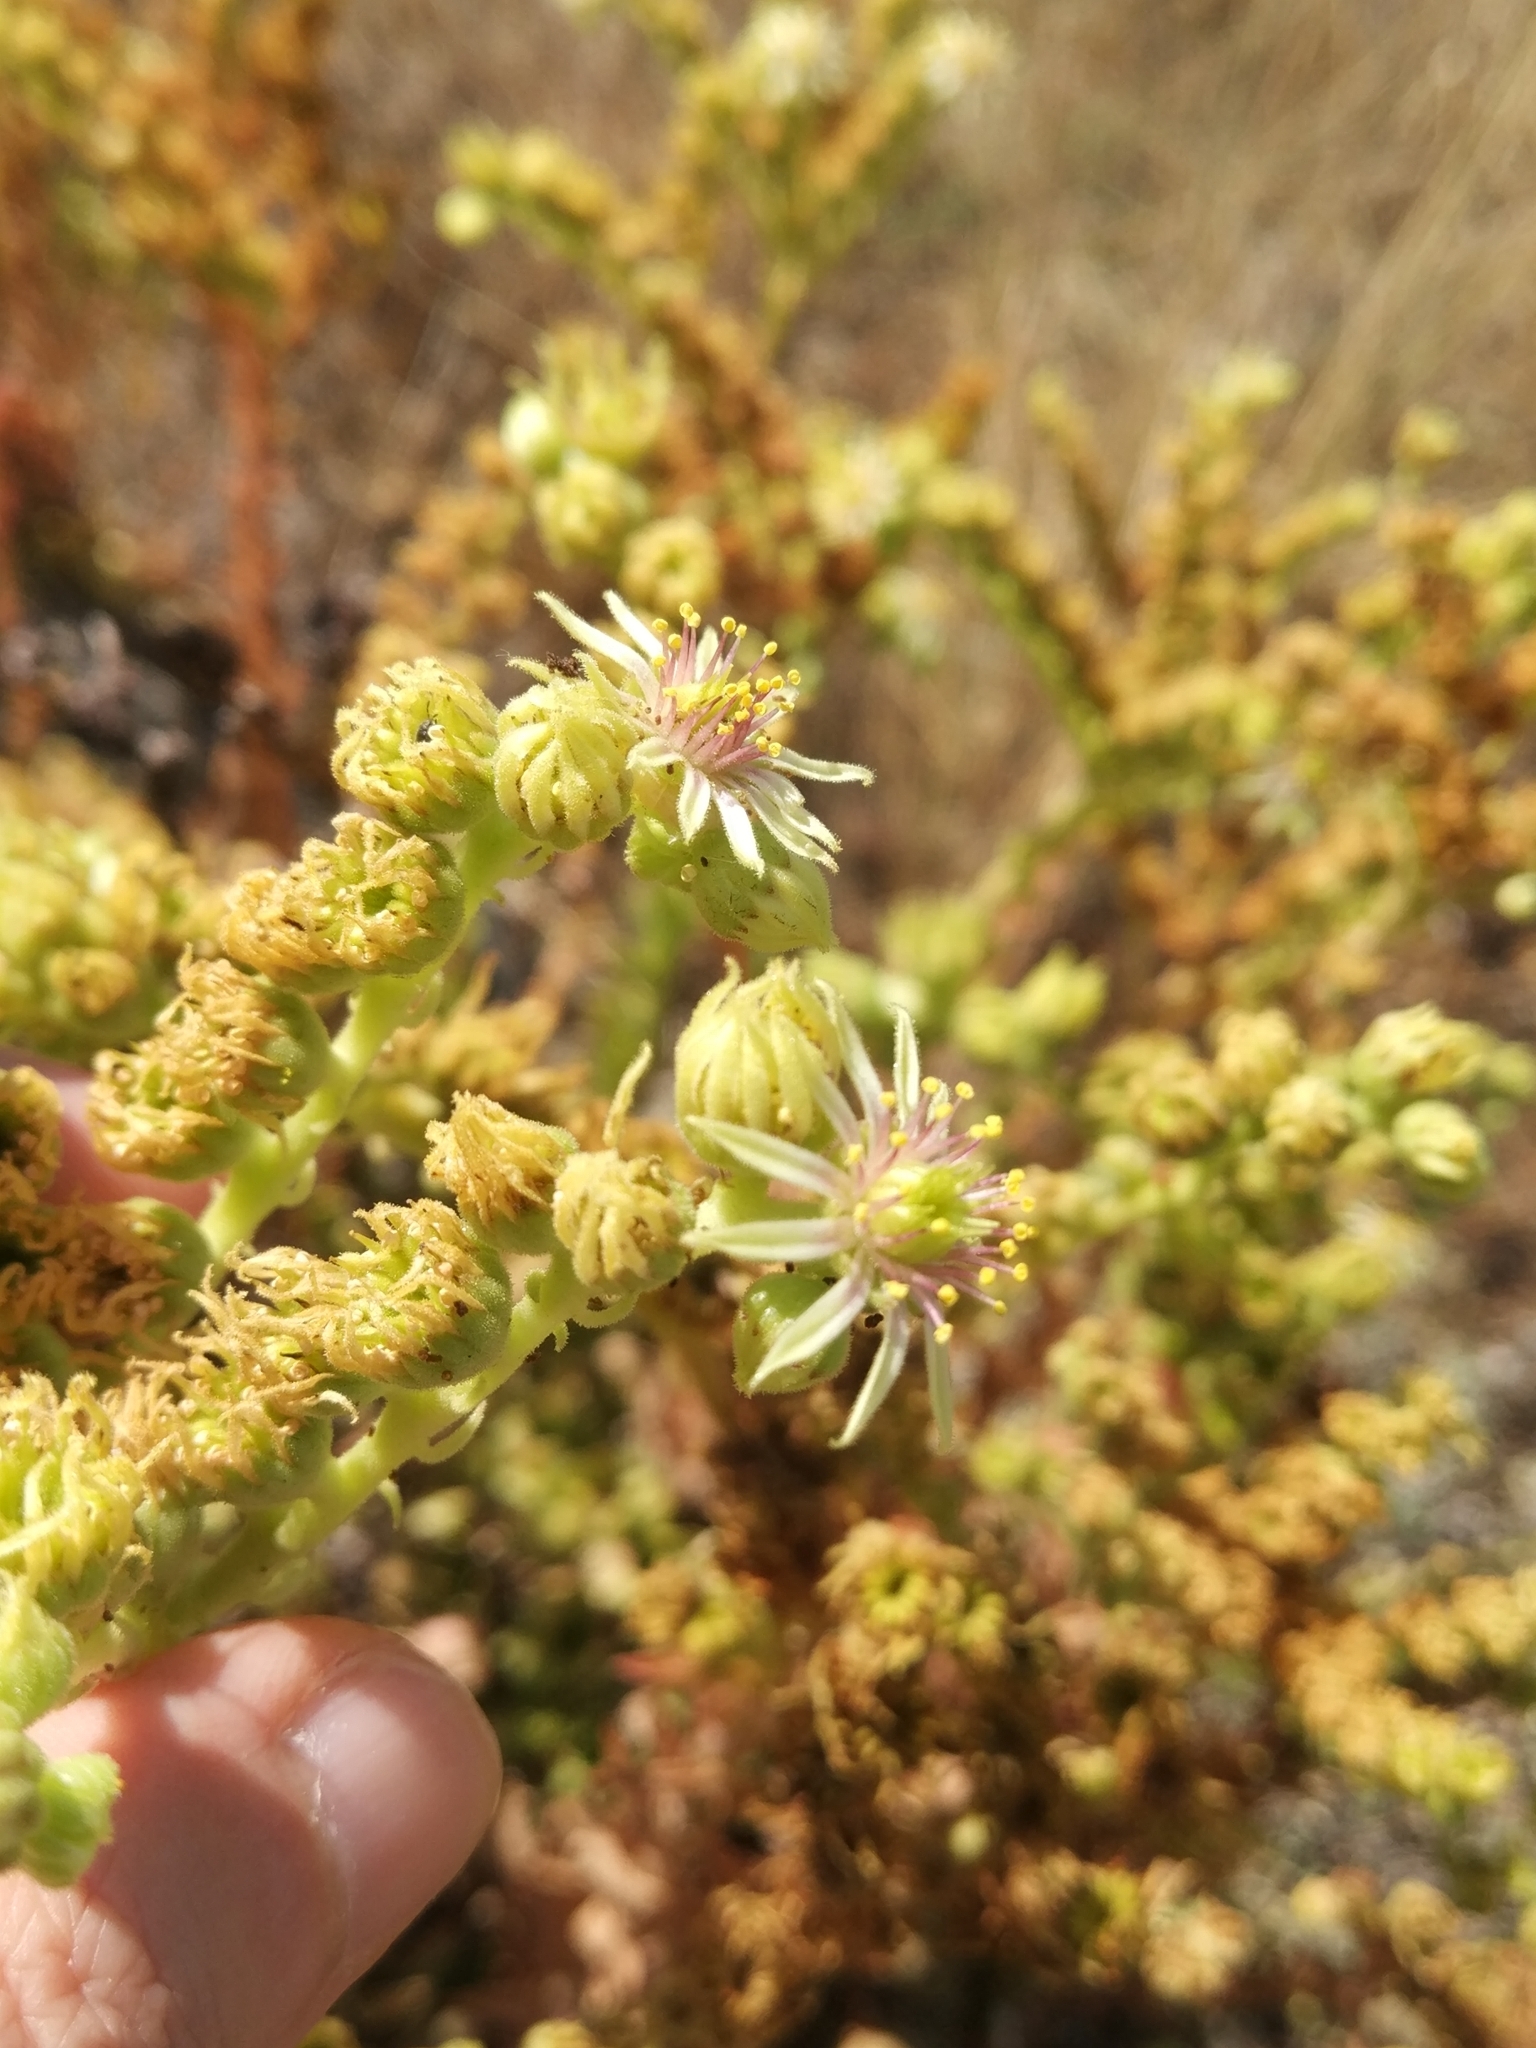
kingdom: Plantae
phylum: Tracheophyta
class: Magnoliopsida
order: Saxifragales
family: Crassulaceae
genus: Sempervivum
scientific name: Sempervivum transcaucasicum
